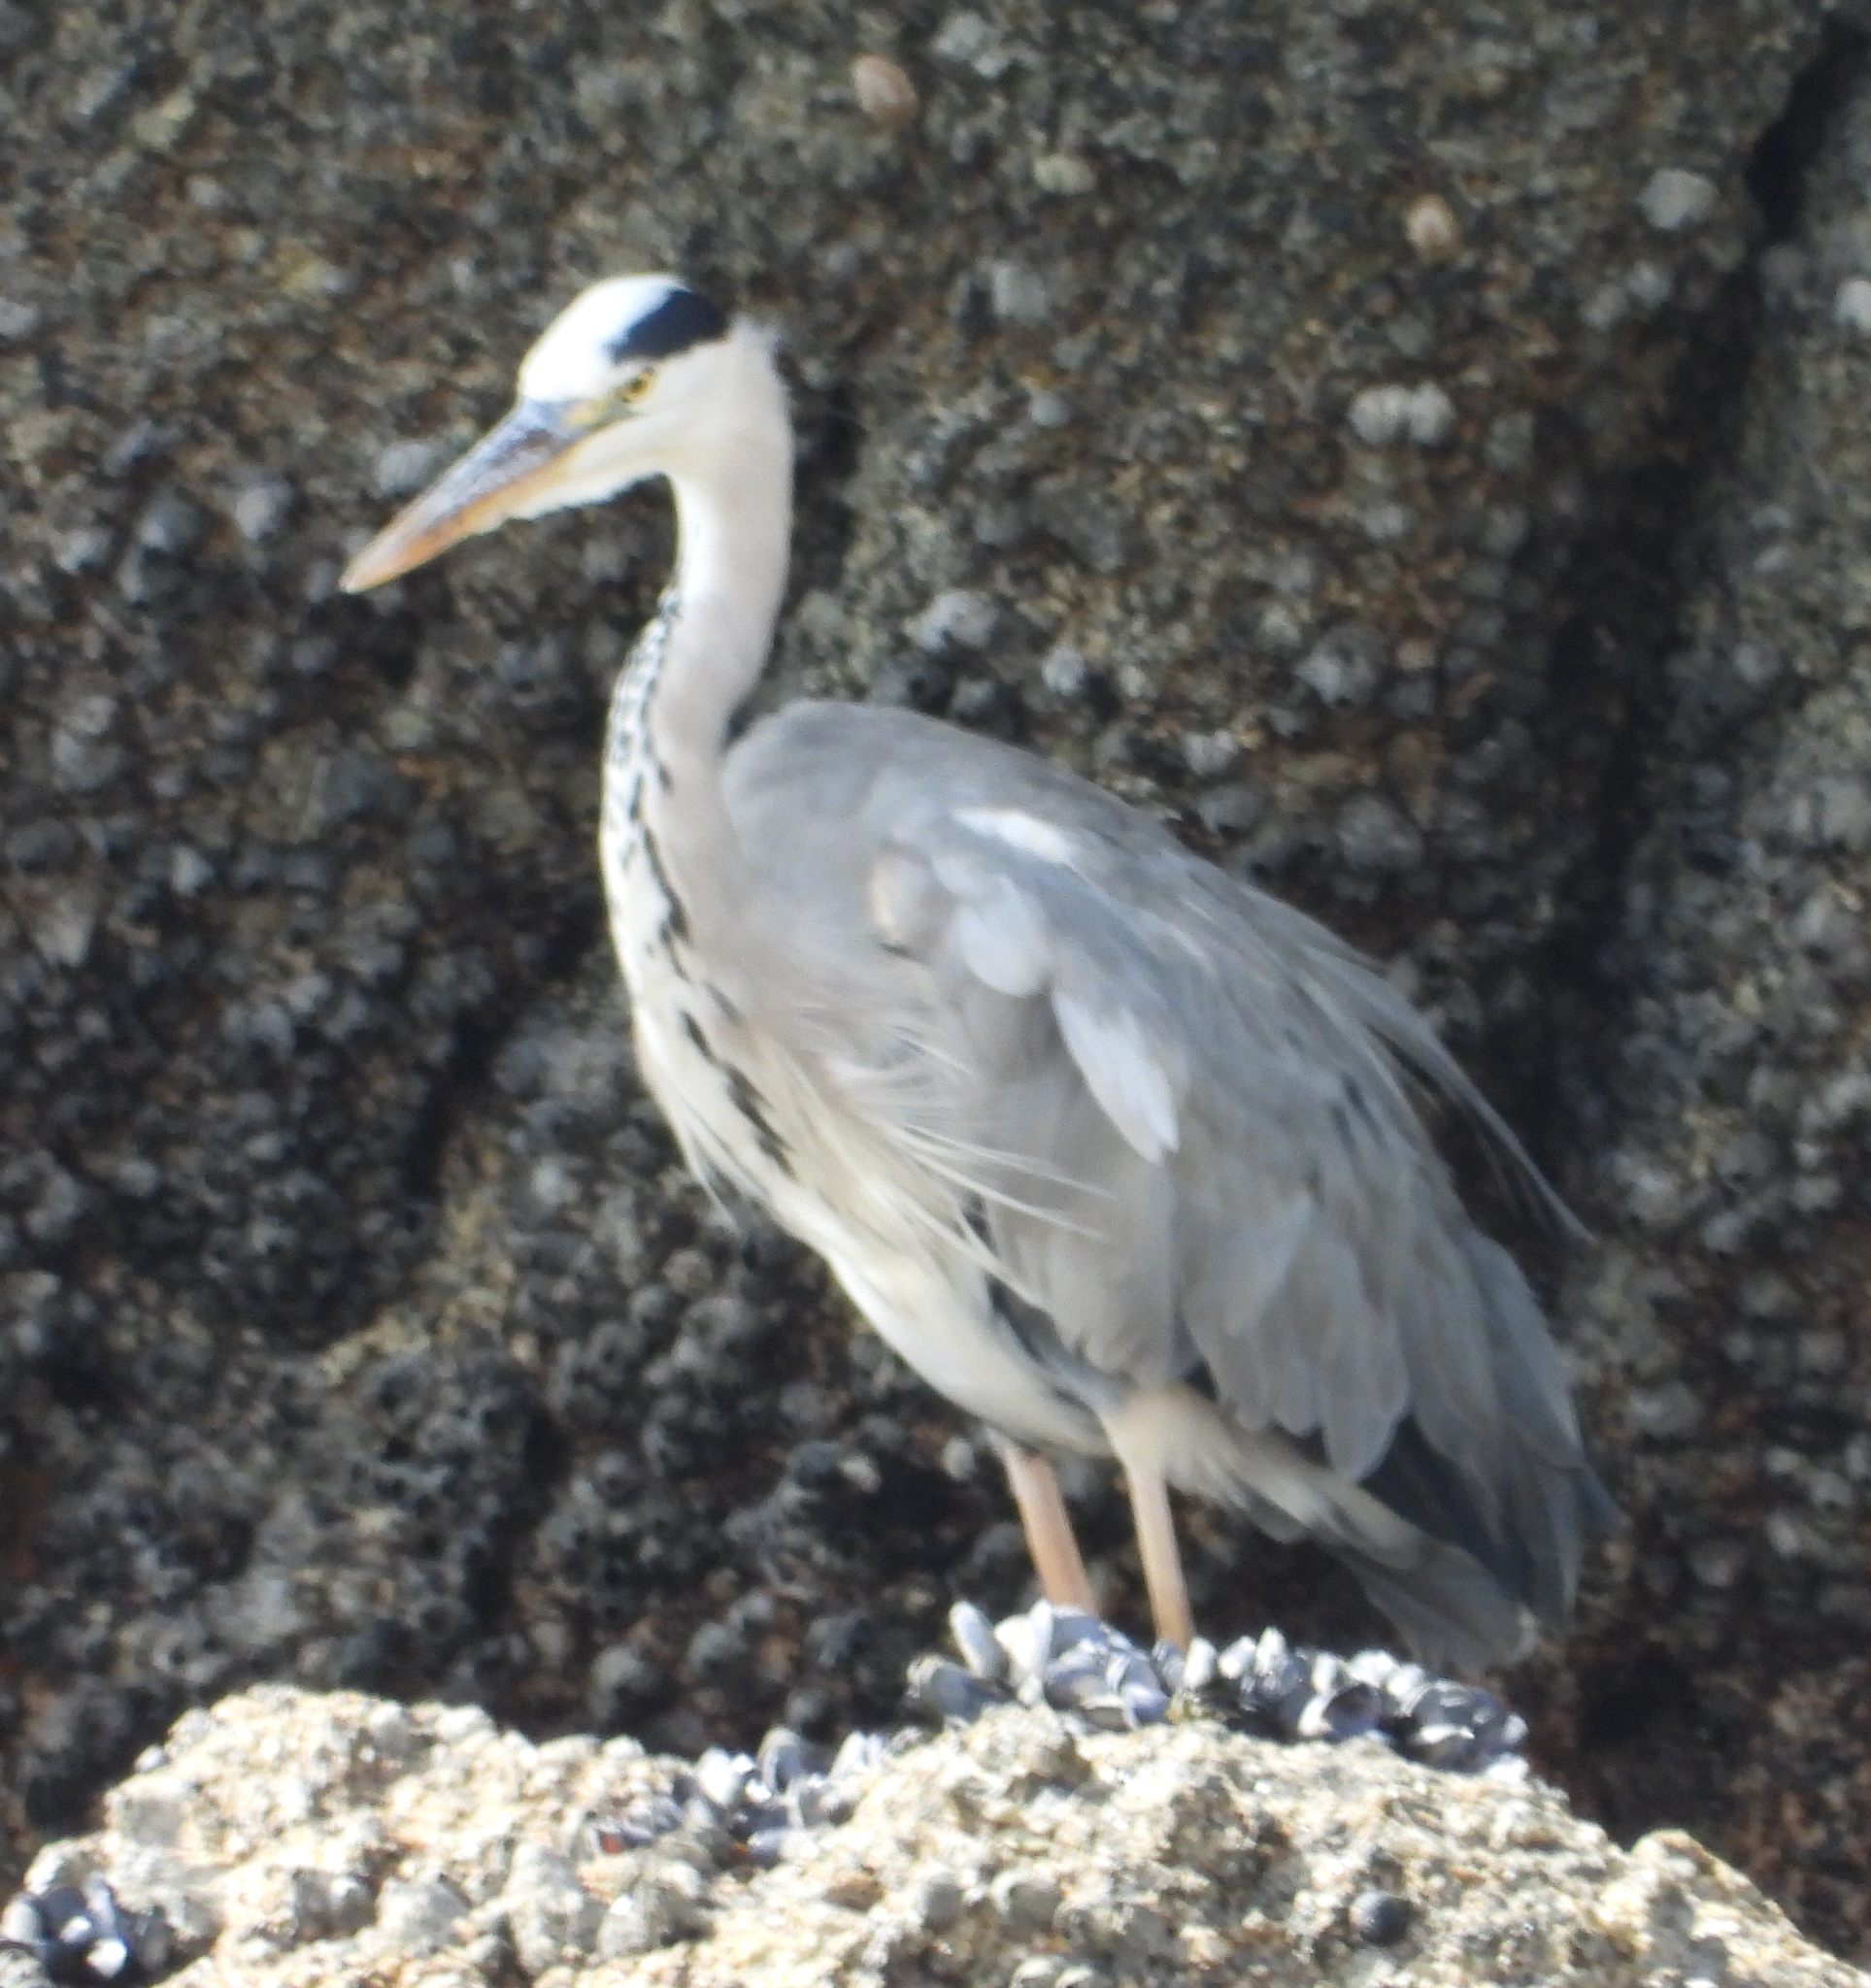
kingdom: Animalia
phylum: Chordata
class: Aves
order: Pelecaniformes
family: Ardeidae
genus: Ardea
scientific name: Ardea cinerea
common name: Grey heron
